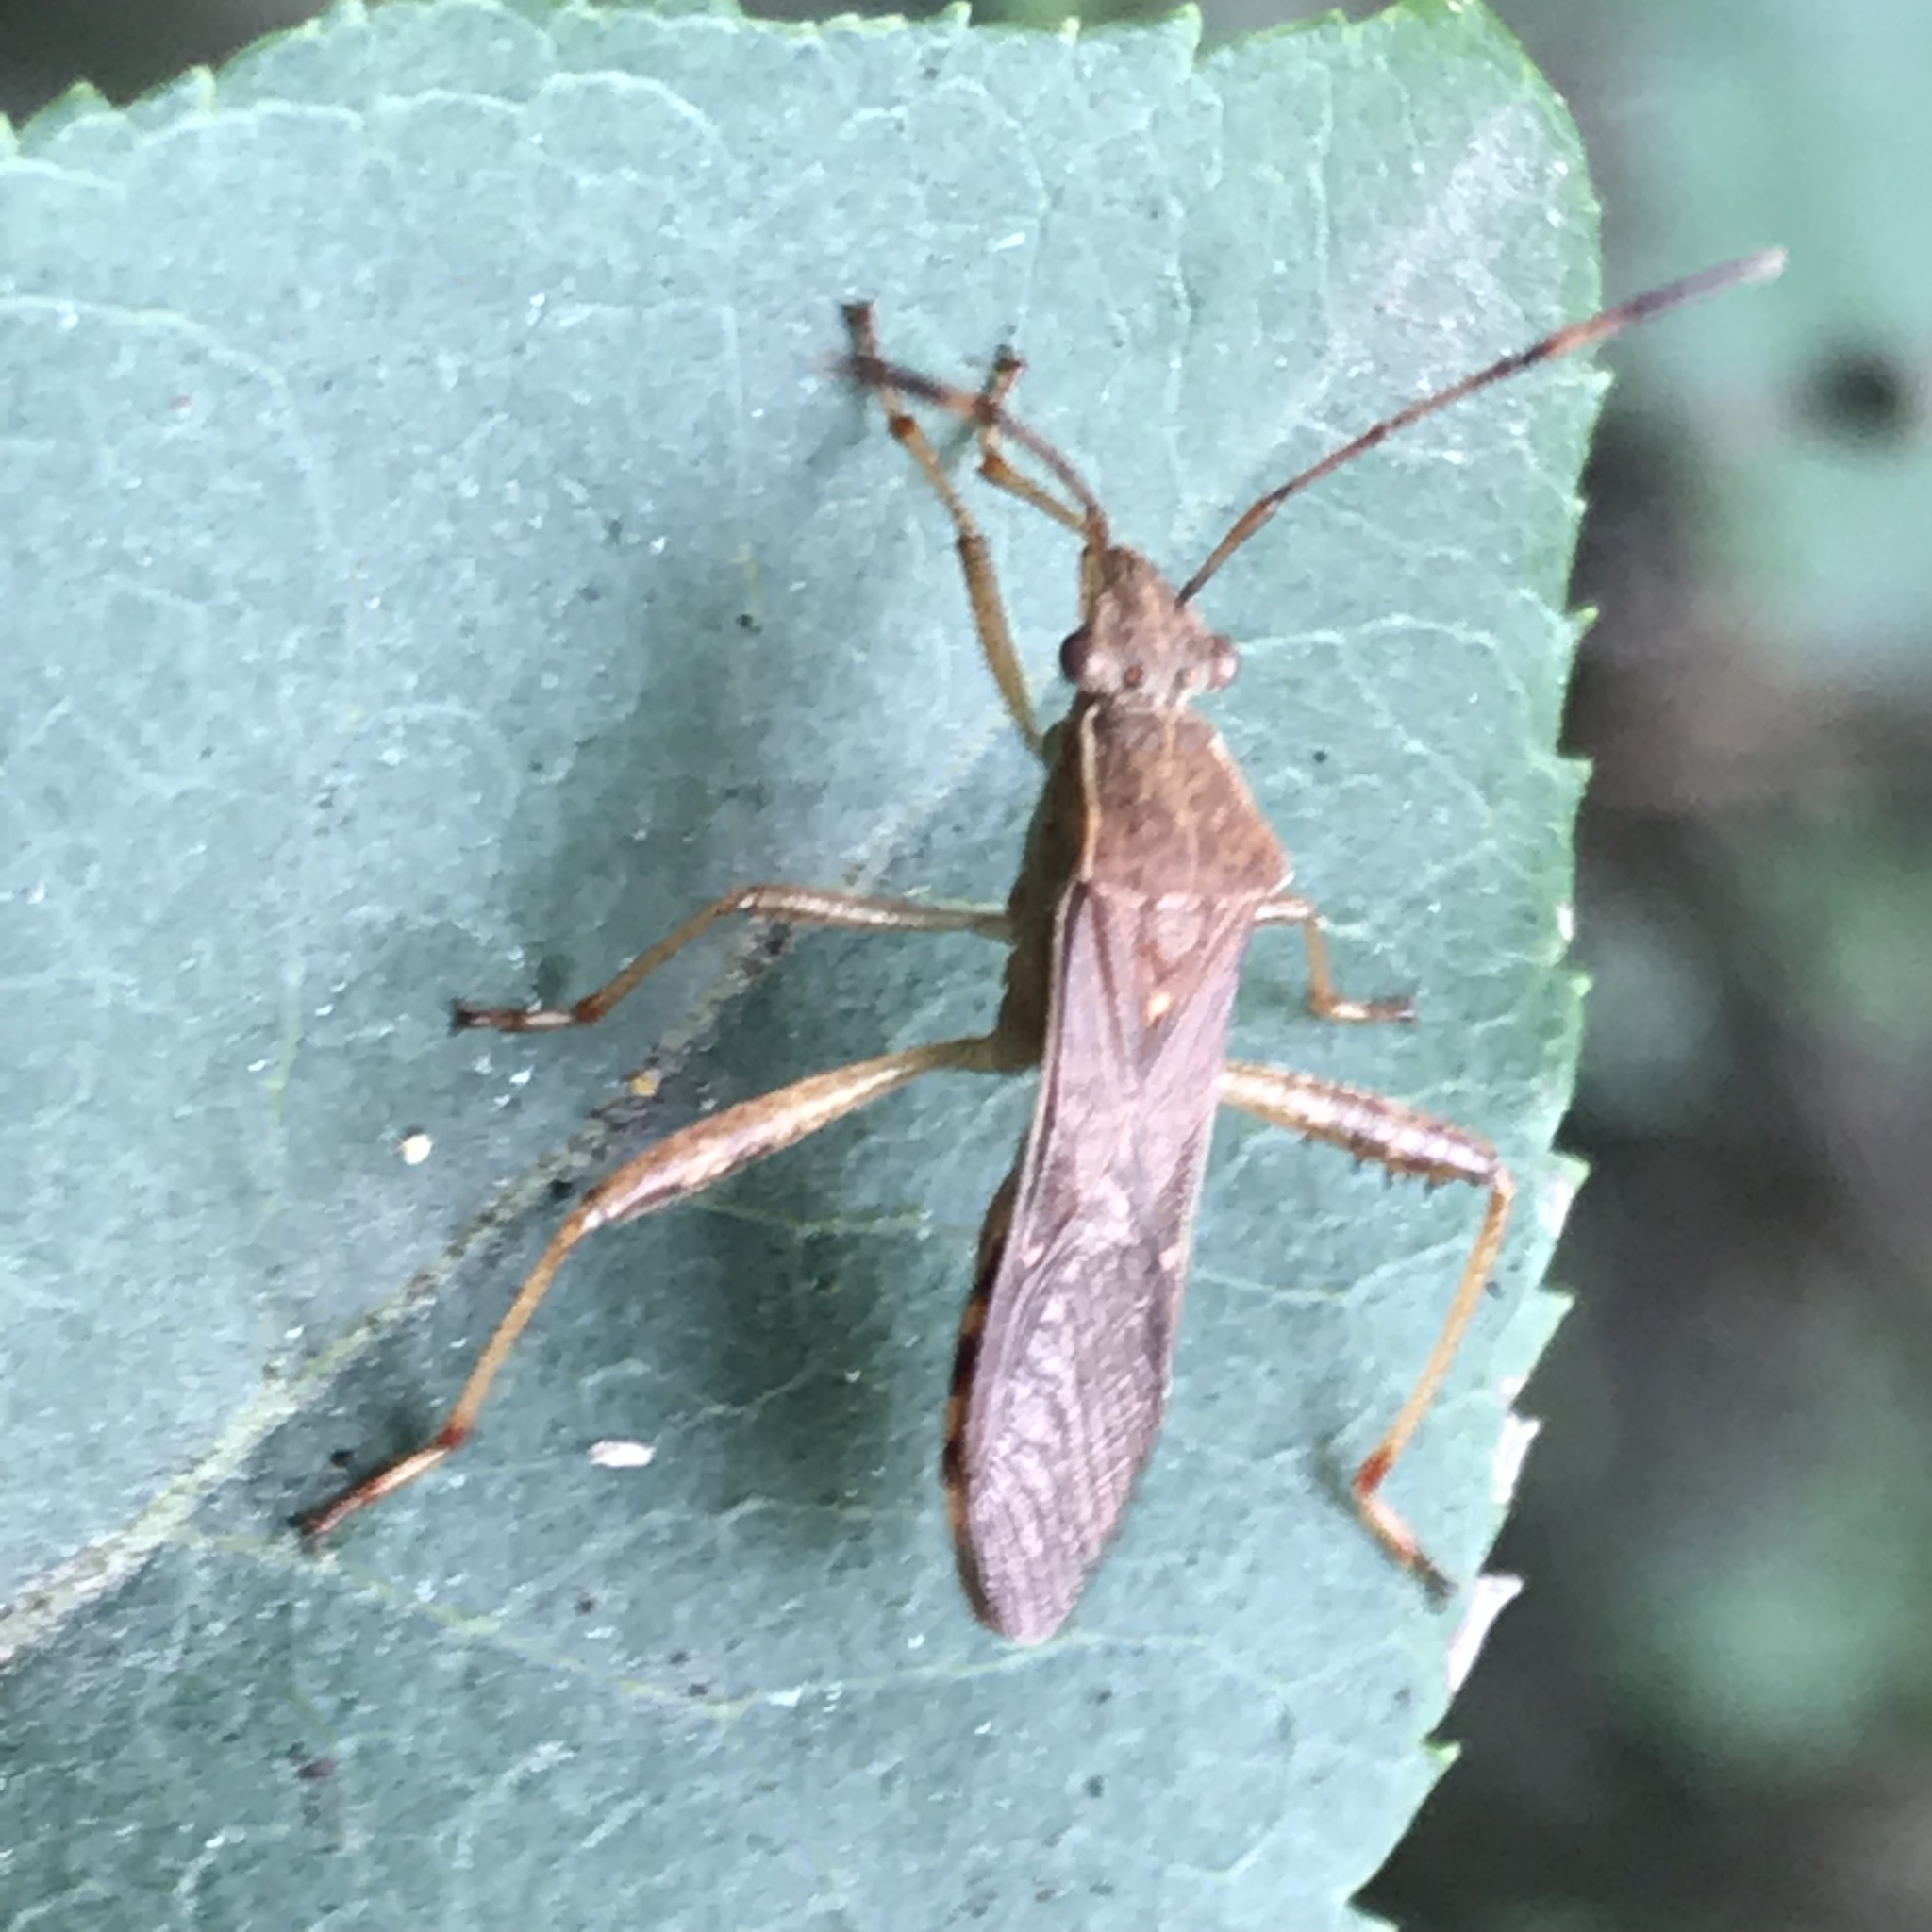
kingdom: Animalia
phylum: Arthropoda
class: Insecta
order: Hemiptera
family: Alydidae
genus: Burtinus
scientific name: Burtinus notatipennis
